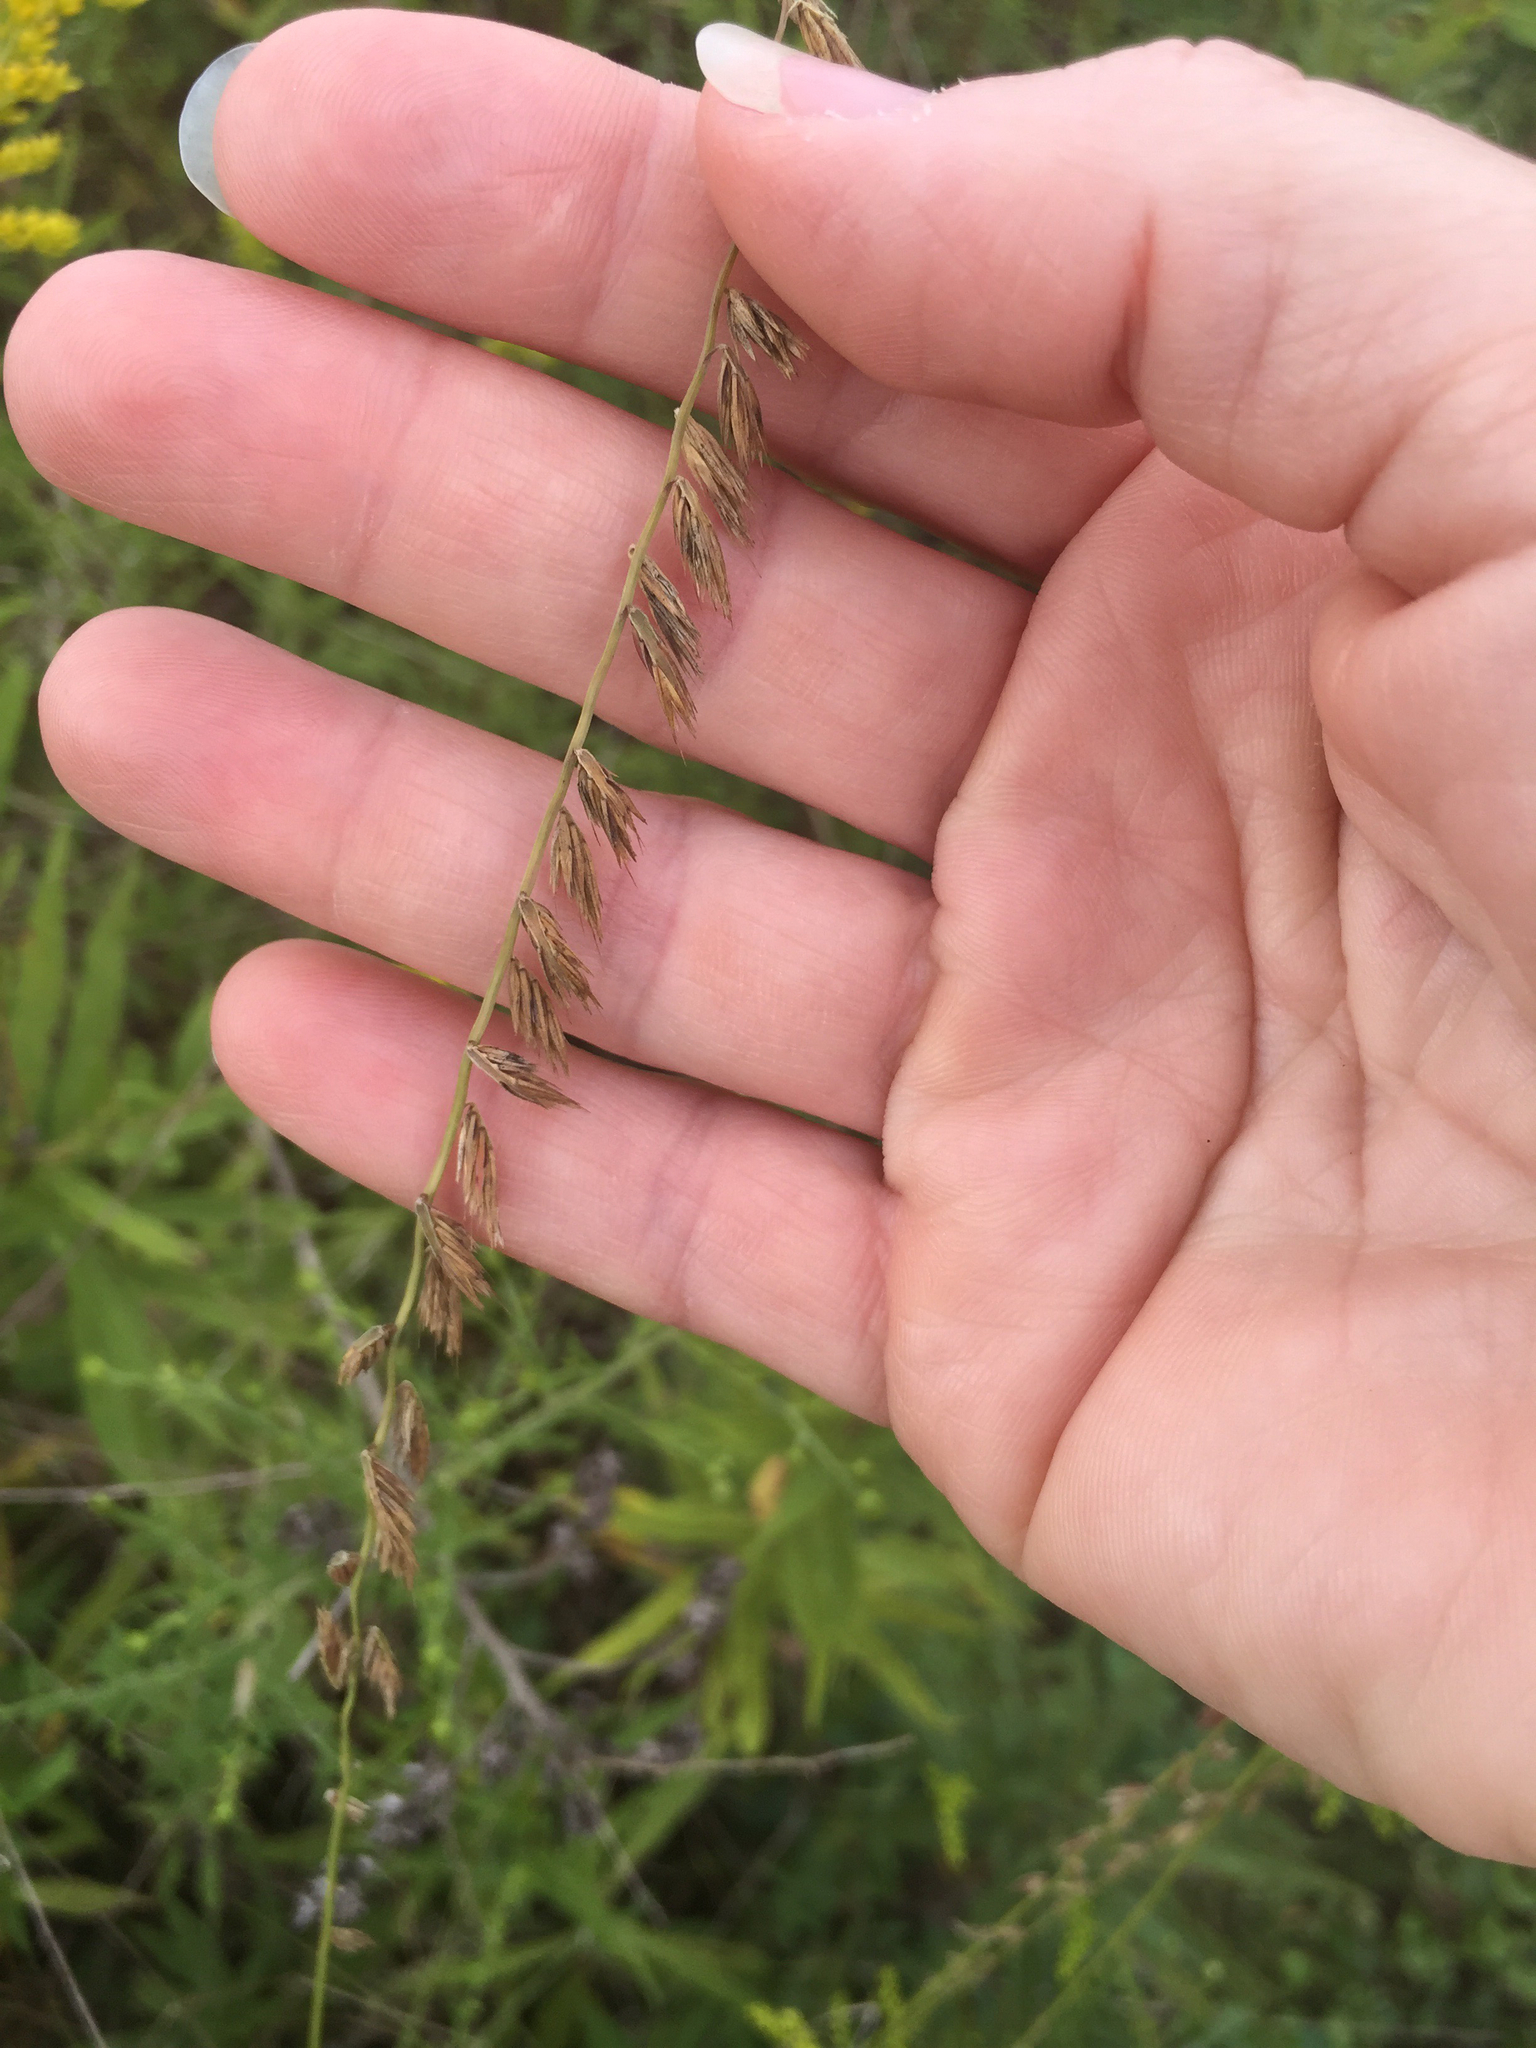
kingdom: Plantae
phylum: Tracheophyta
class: Liliopsida
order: Poales
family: Poaceae
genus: Bouteloua
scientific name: Bouteloua curtipendula
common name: Side-oats grama
